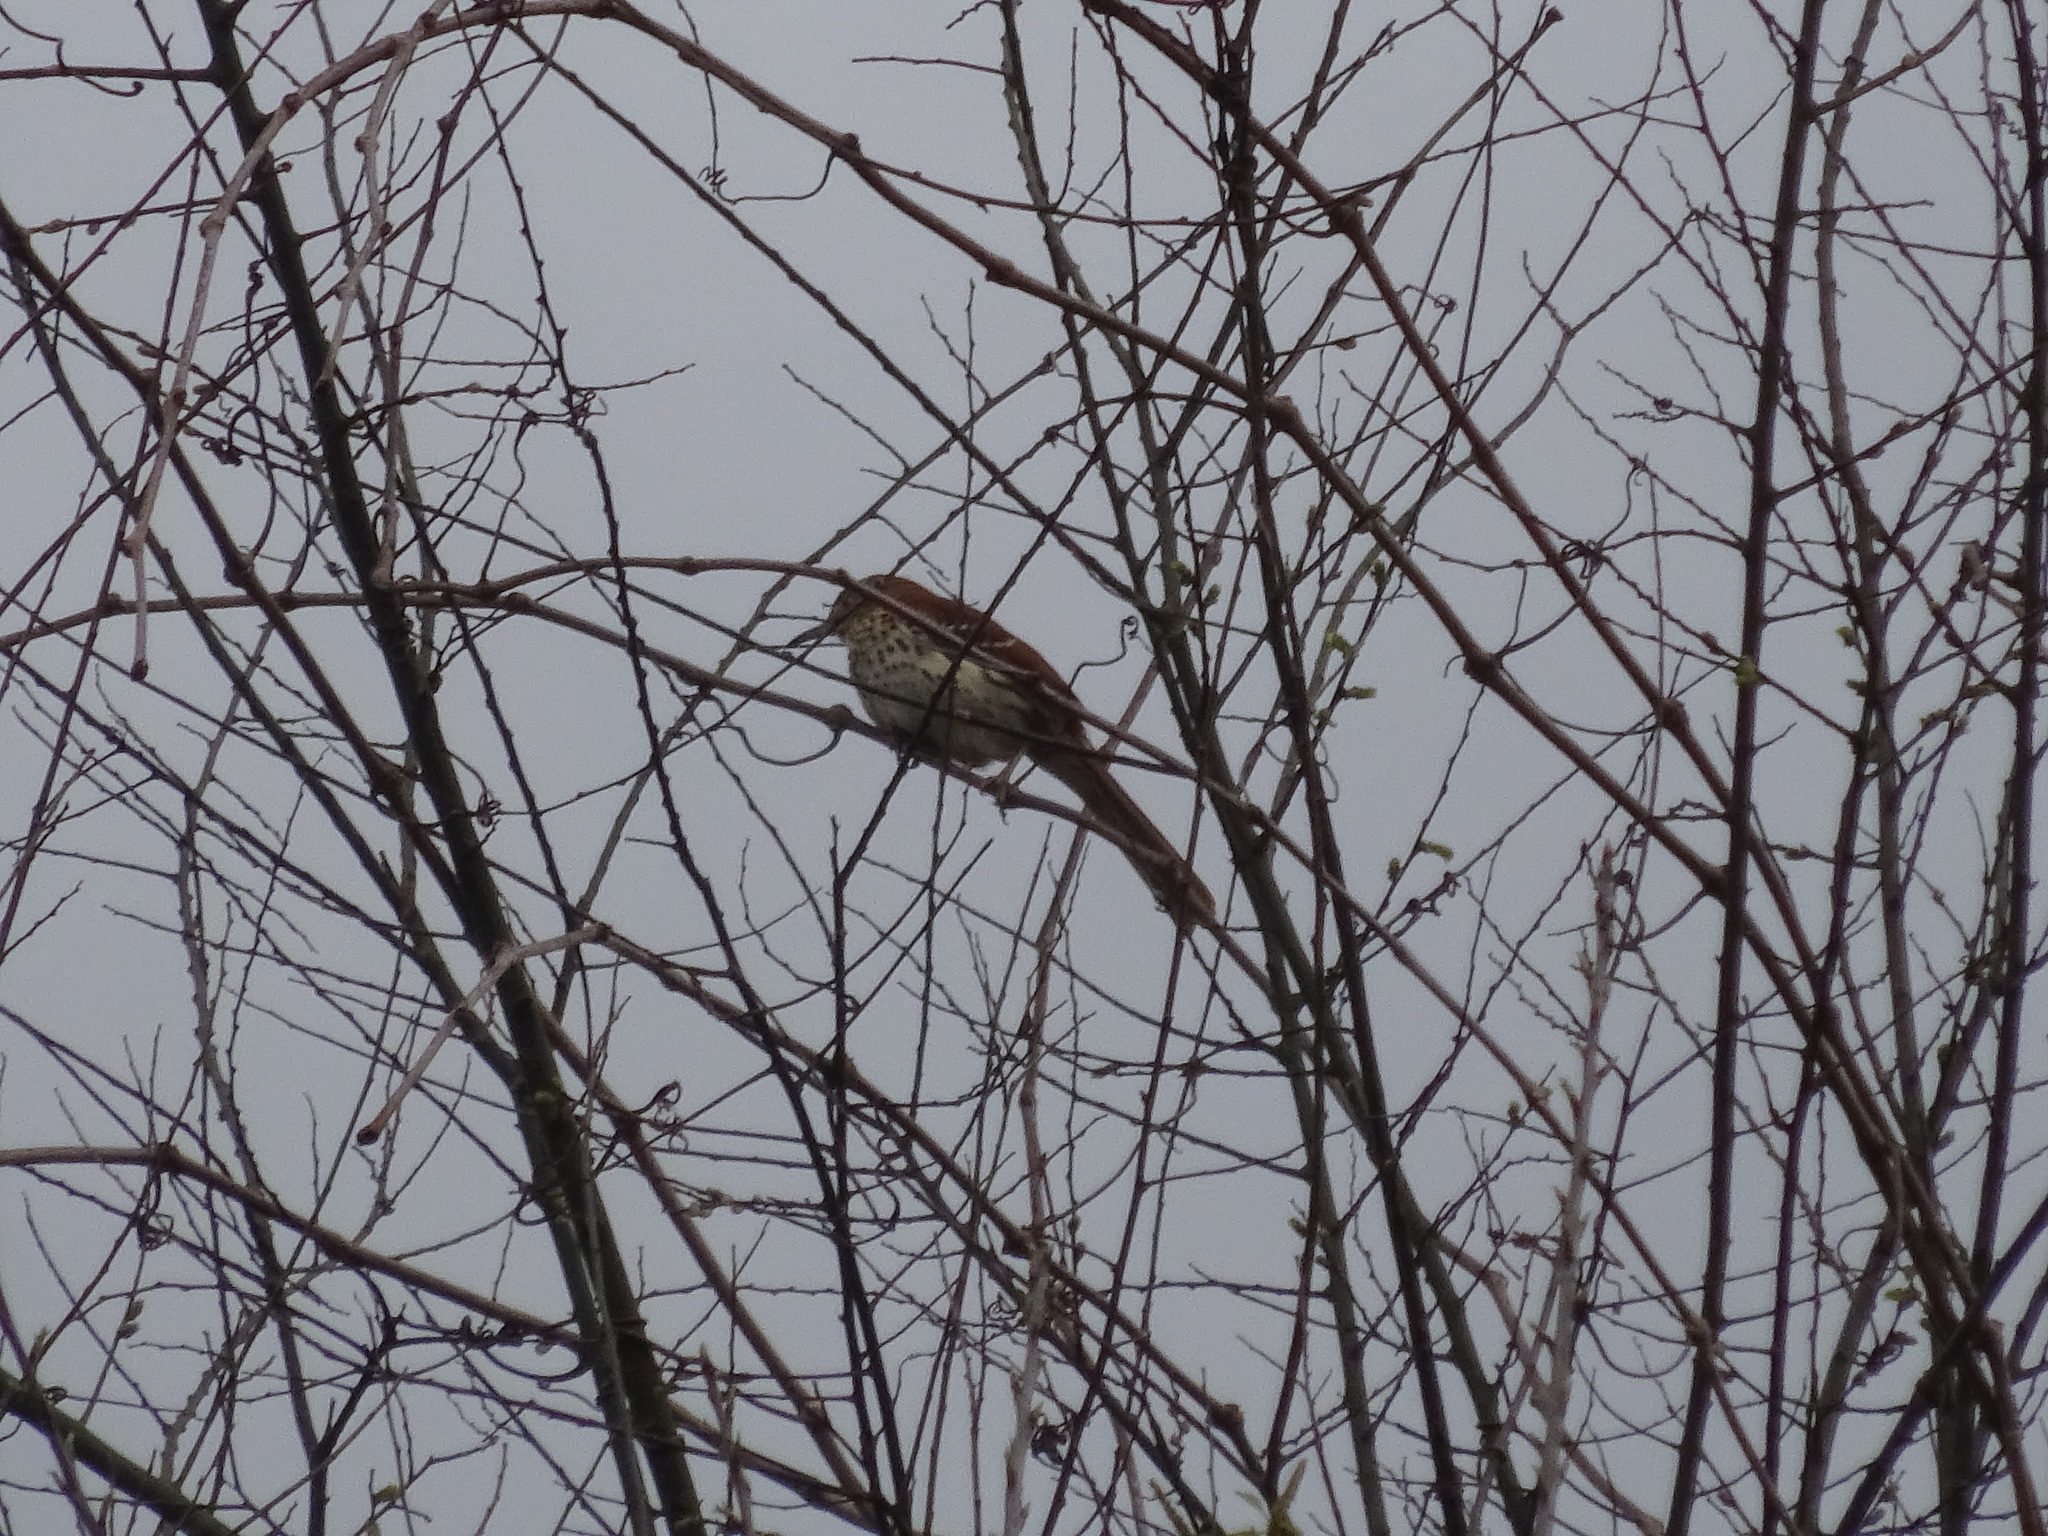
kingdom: Animalia
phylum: Chordata
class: Aves
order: Passeriformes
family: Mimidae
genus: Toxostoma
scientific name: Toxostoma rufum
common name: Brown thrasher
